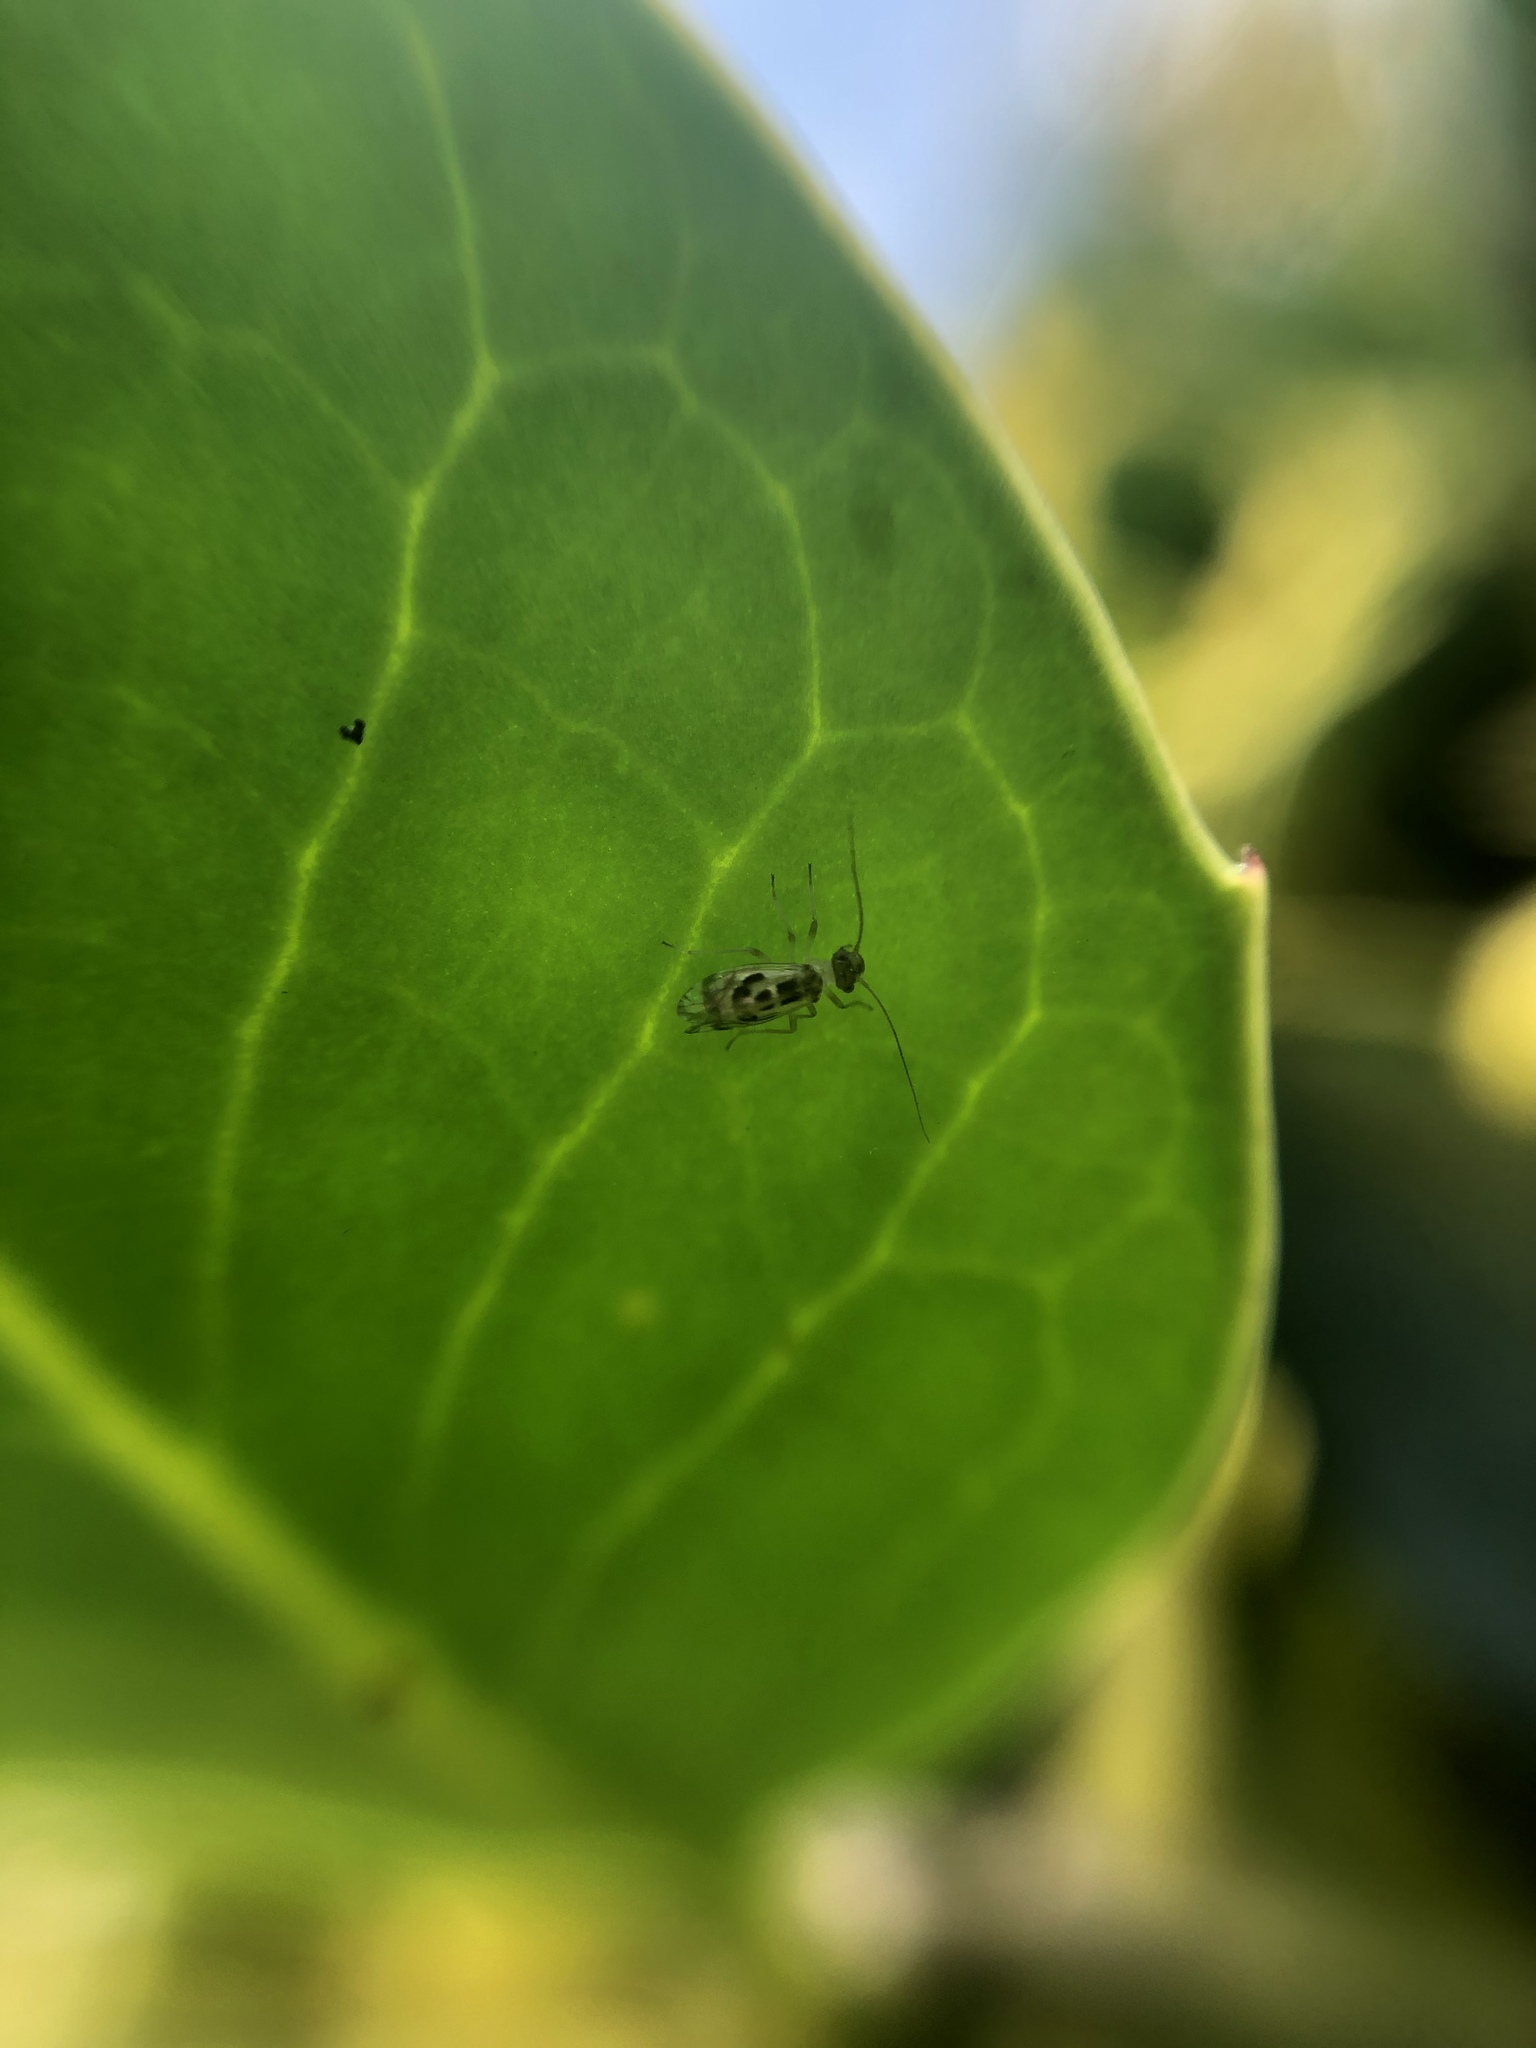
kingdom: Animalia
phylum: Arthropoda
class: Insecta
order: Psocodea
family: Stenopsocidae
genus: Graphopsocus
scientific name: Graphopsocus cruciatus
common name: Lizard bark louse
